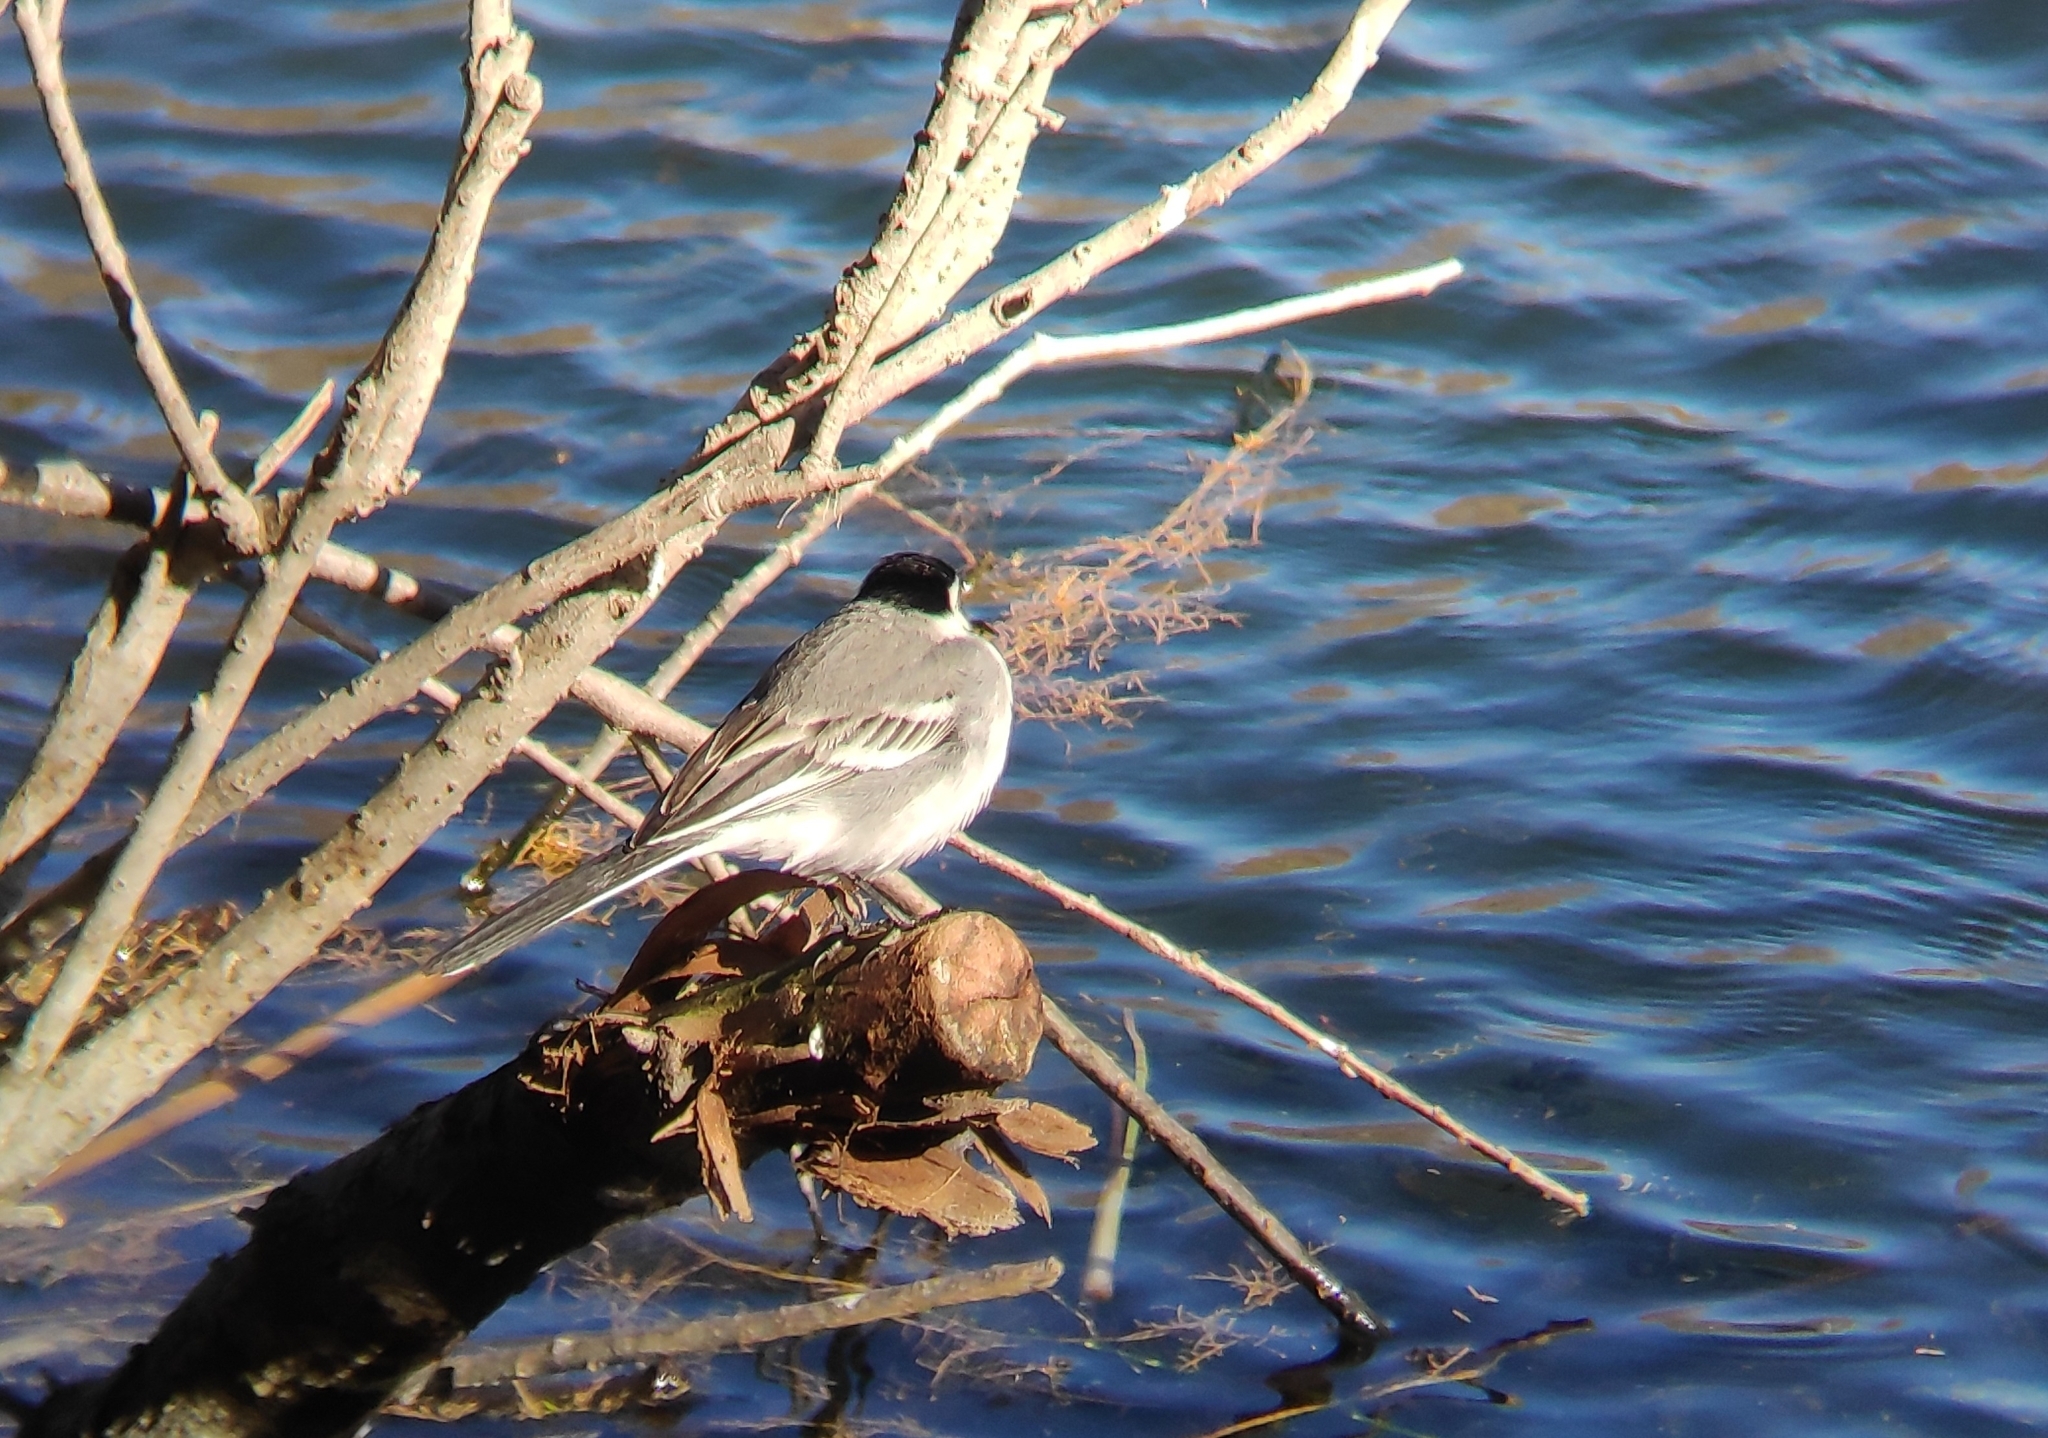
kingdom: Animalia
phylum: Chordata
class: Aves
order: Passeriformes
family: Motacillidae
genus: Motacilla
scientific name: Motacilla alba
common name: White wagtail
